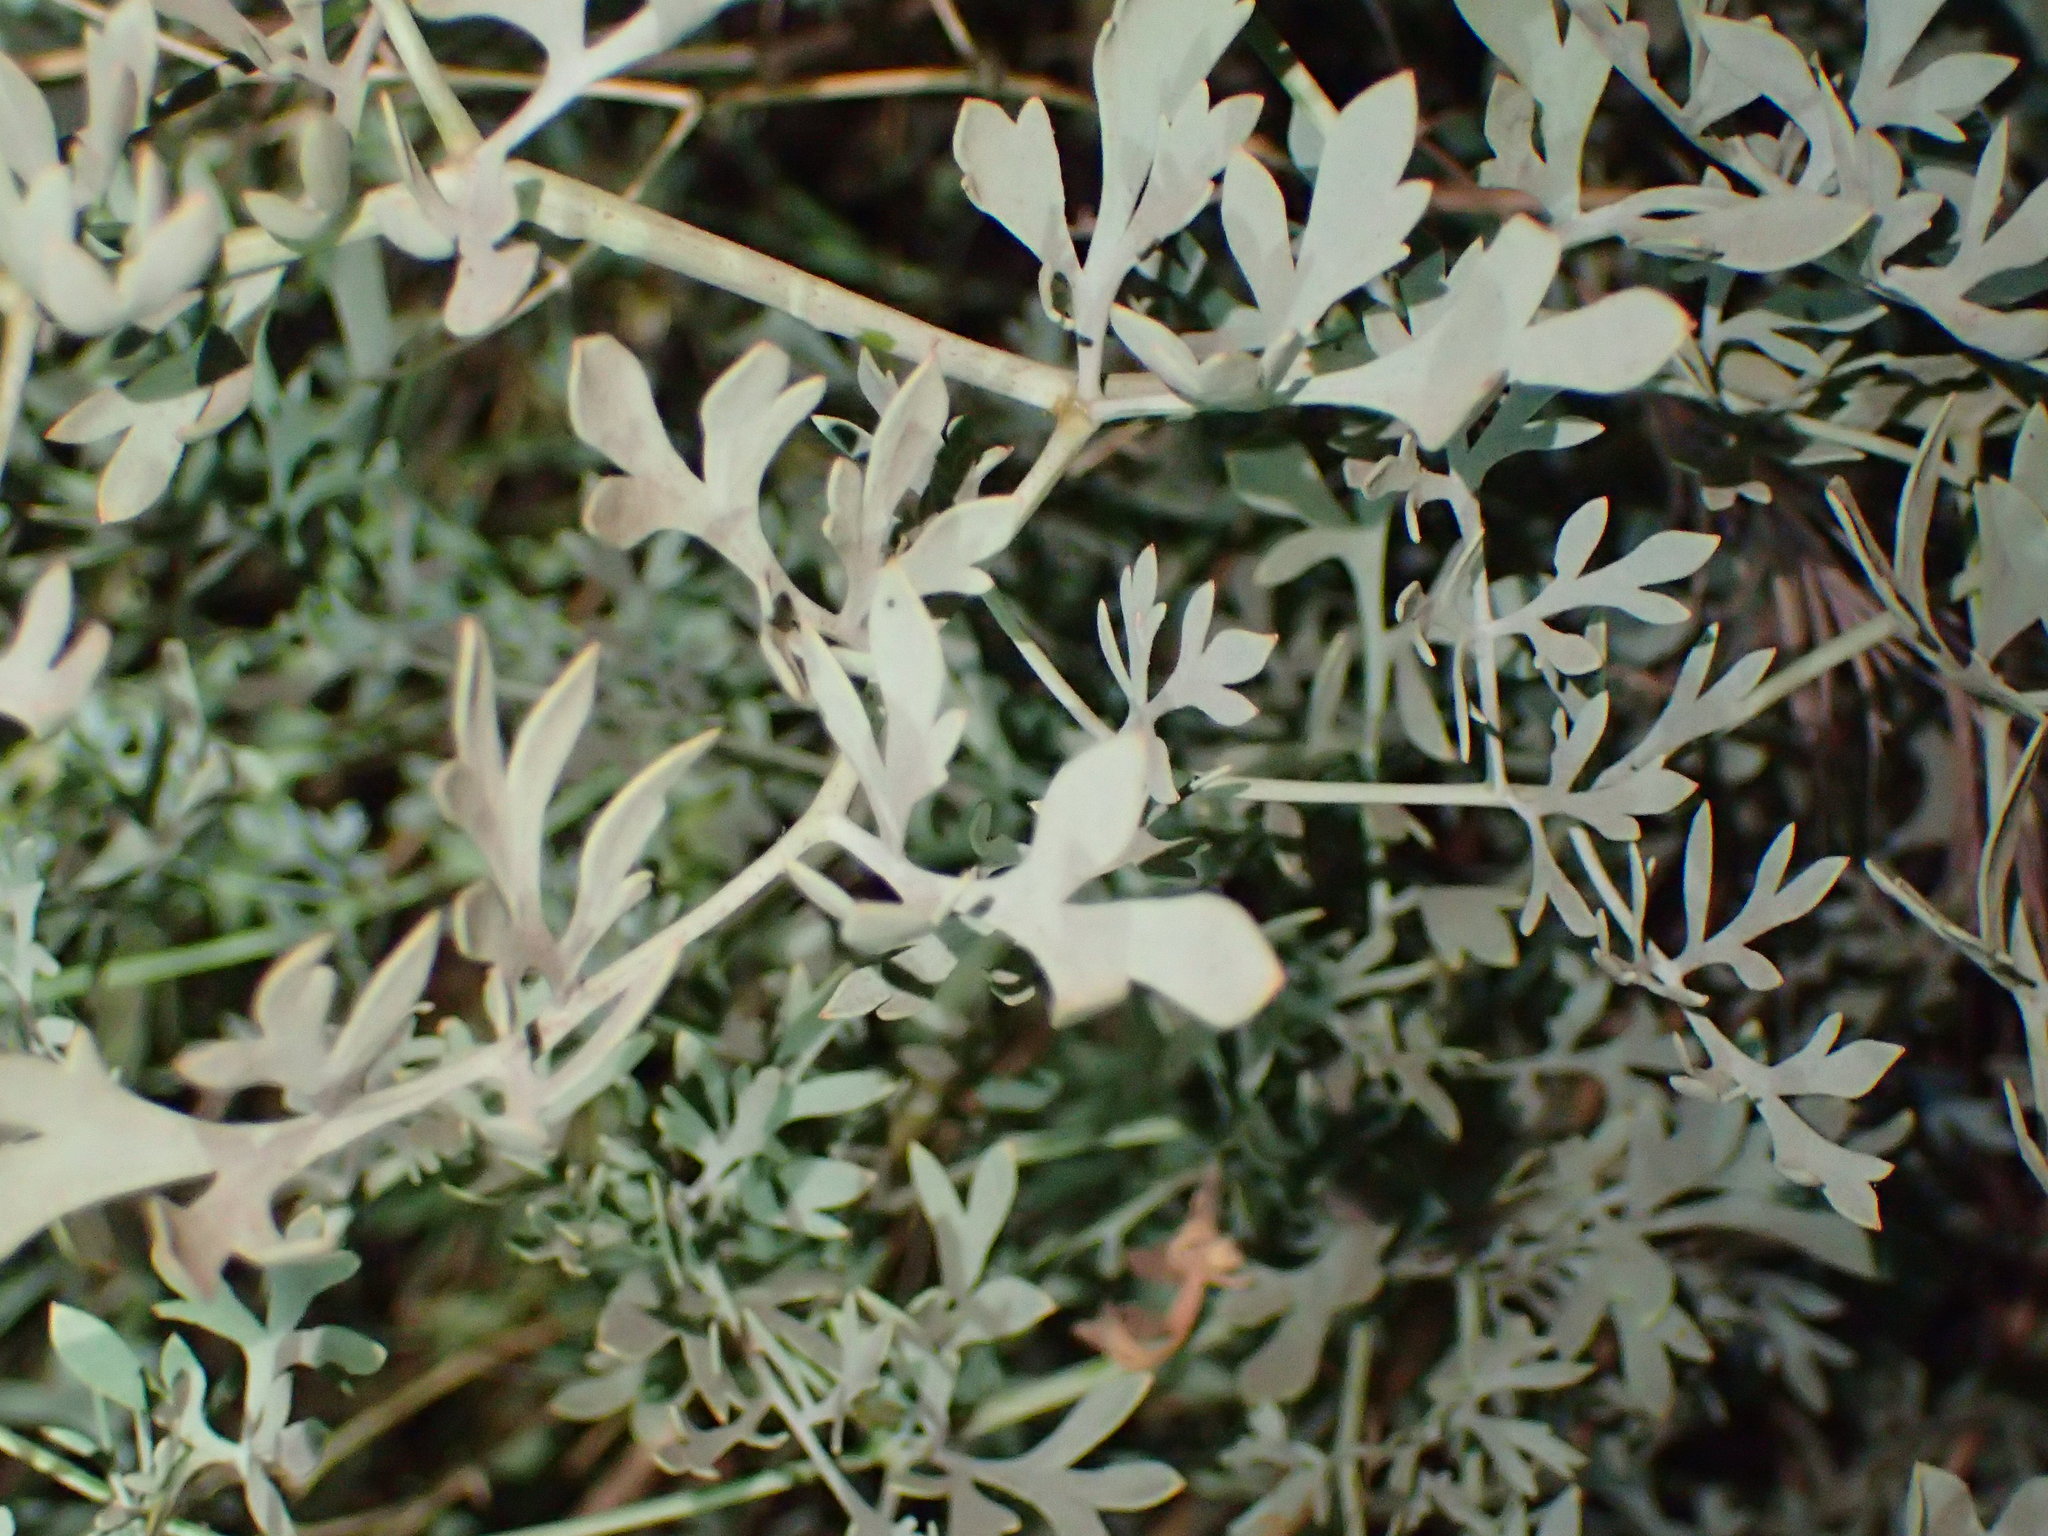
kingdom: Plantae
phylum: Tracheophyta
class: Magnoliopsida
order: Ranunculales
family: Papaveraceae
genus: Ehrendorferia
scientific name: Ehrendorferia chrysantha
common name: Golden eardrops
